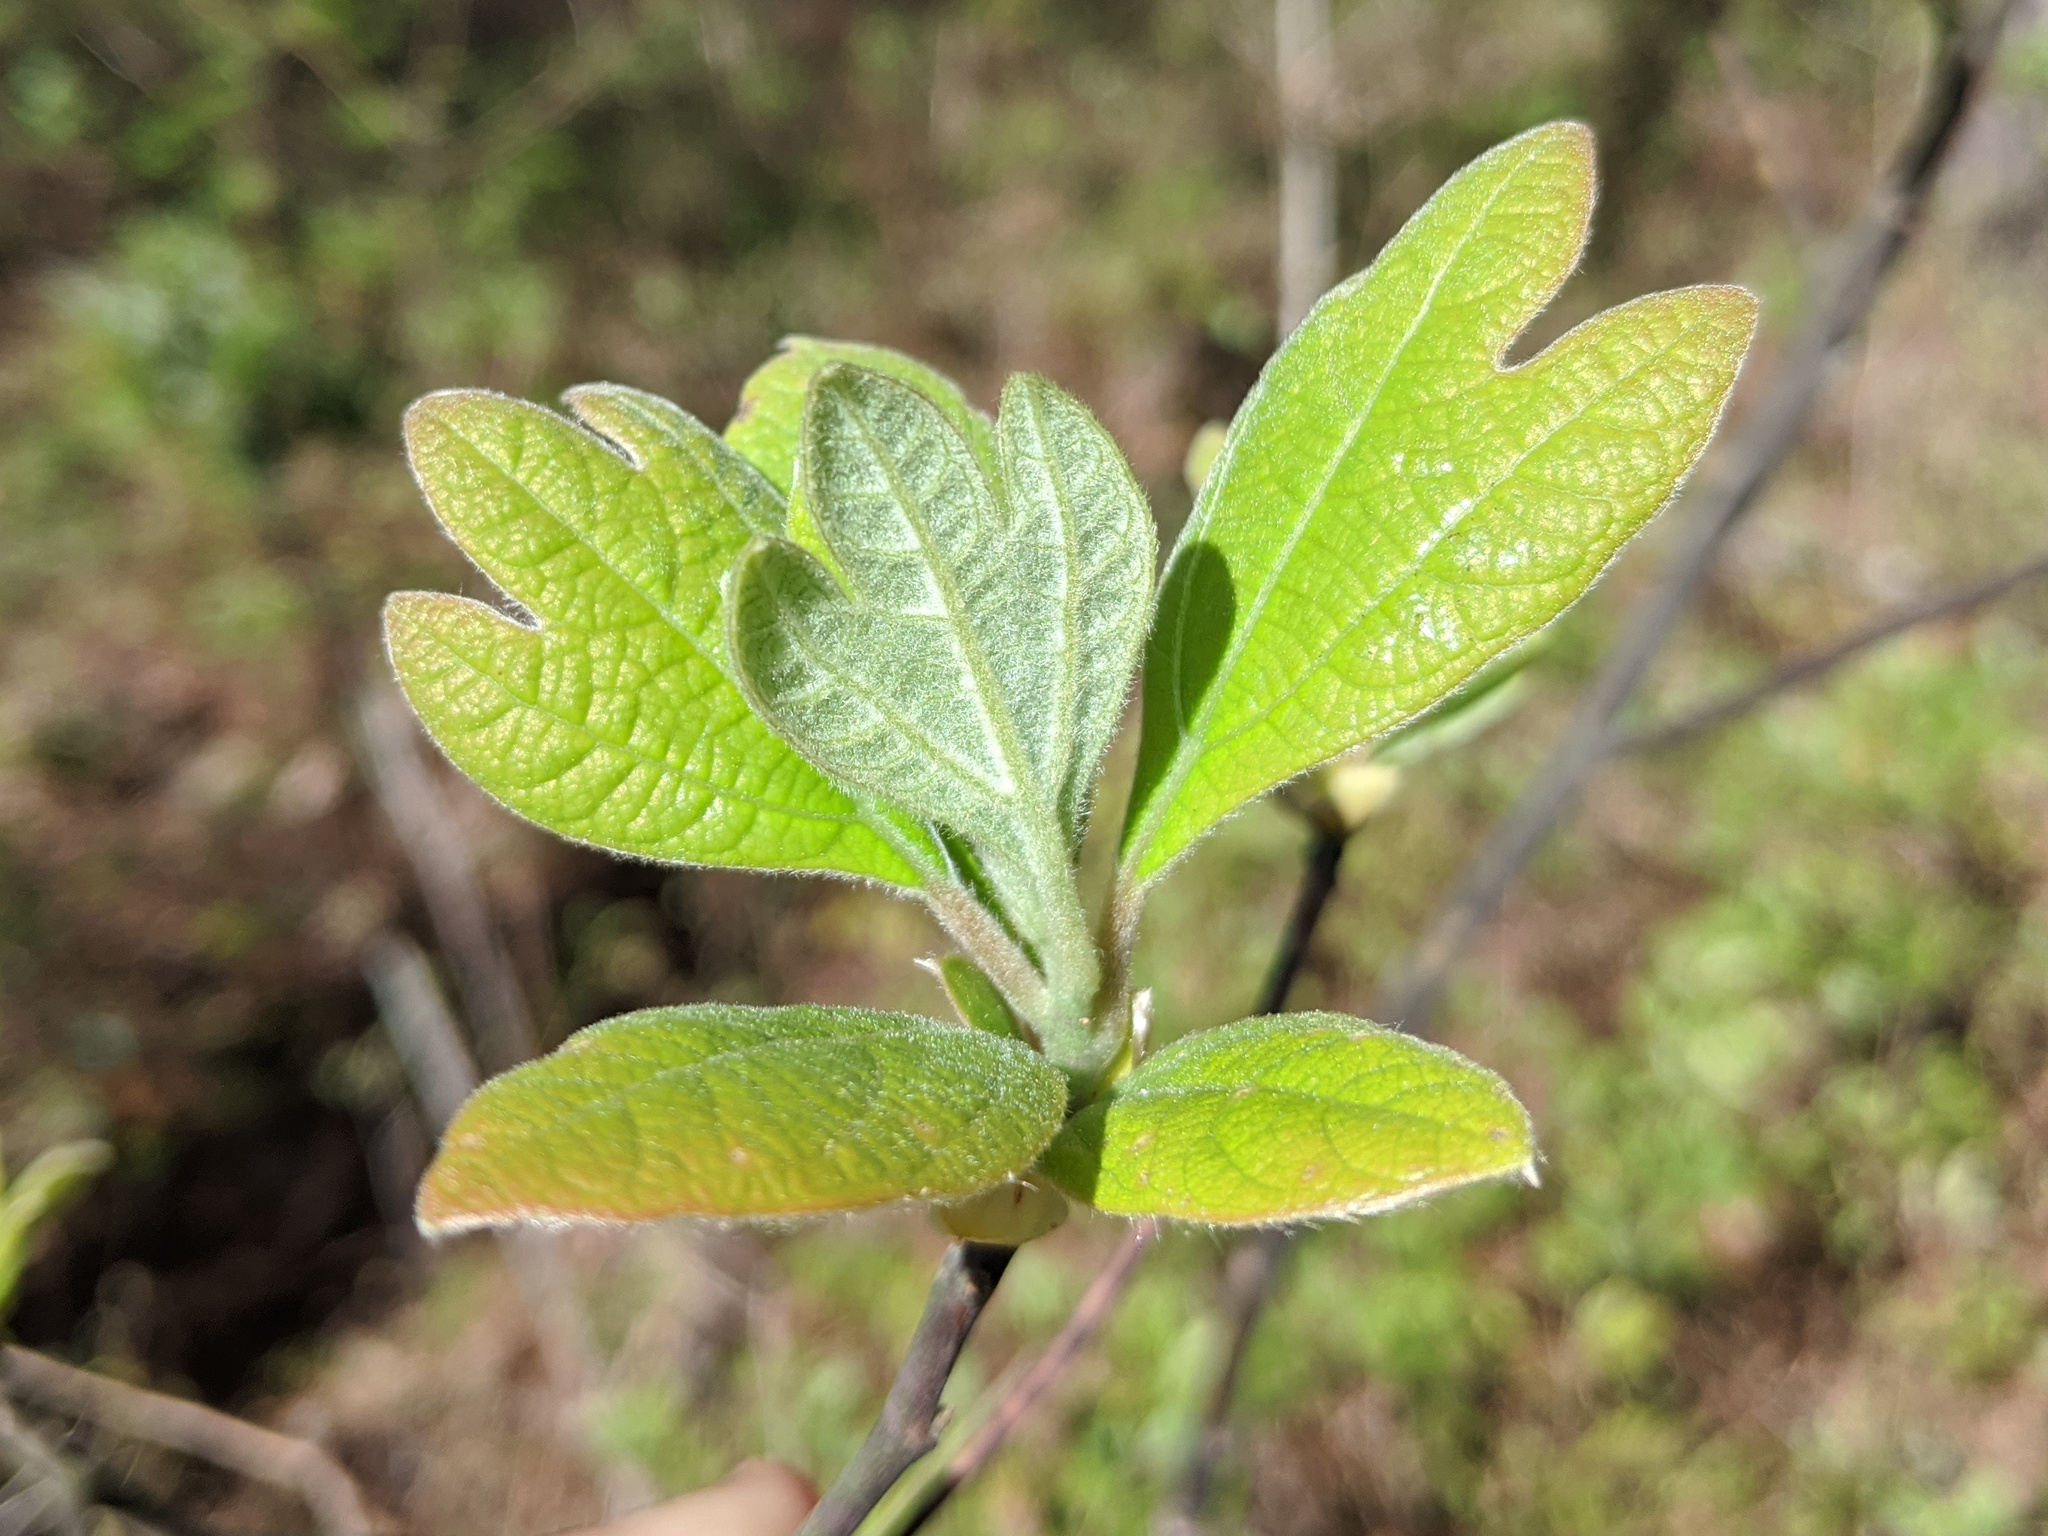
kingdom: Plantae
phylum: Tracheophyta
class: Magnoliopsida
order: Laurales
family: Lauraceae
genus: Sassafras
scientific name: Sassafras albidum
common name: Sassafras
